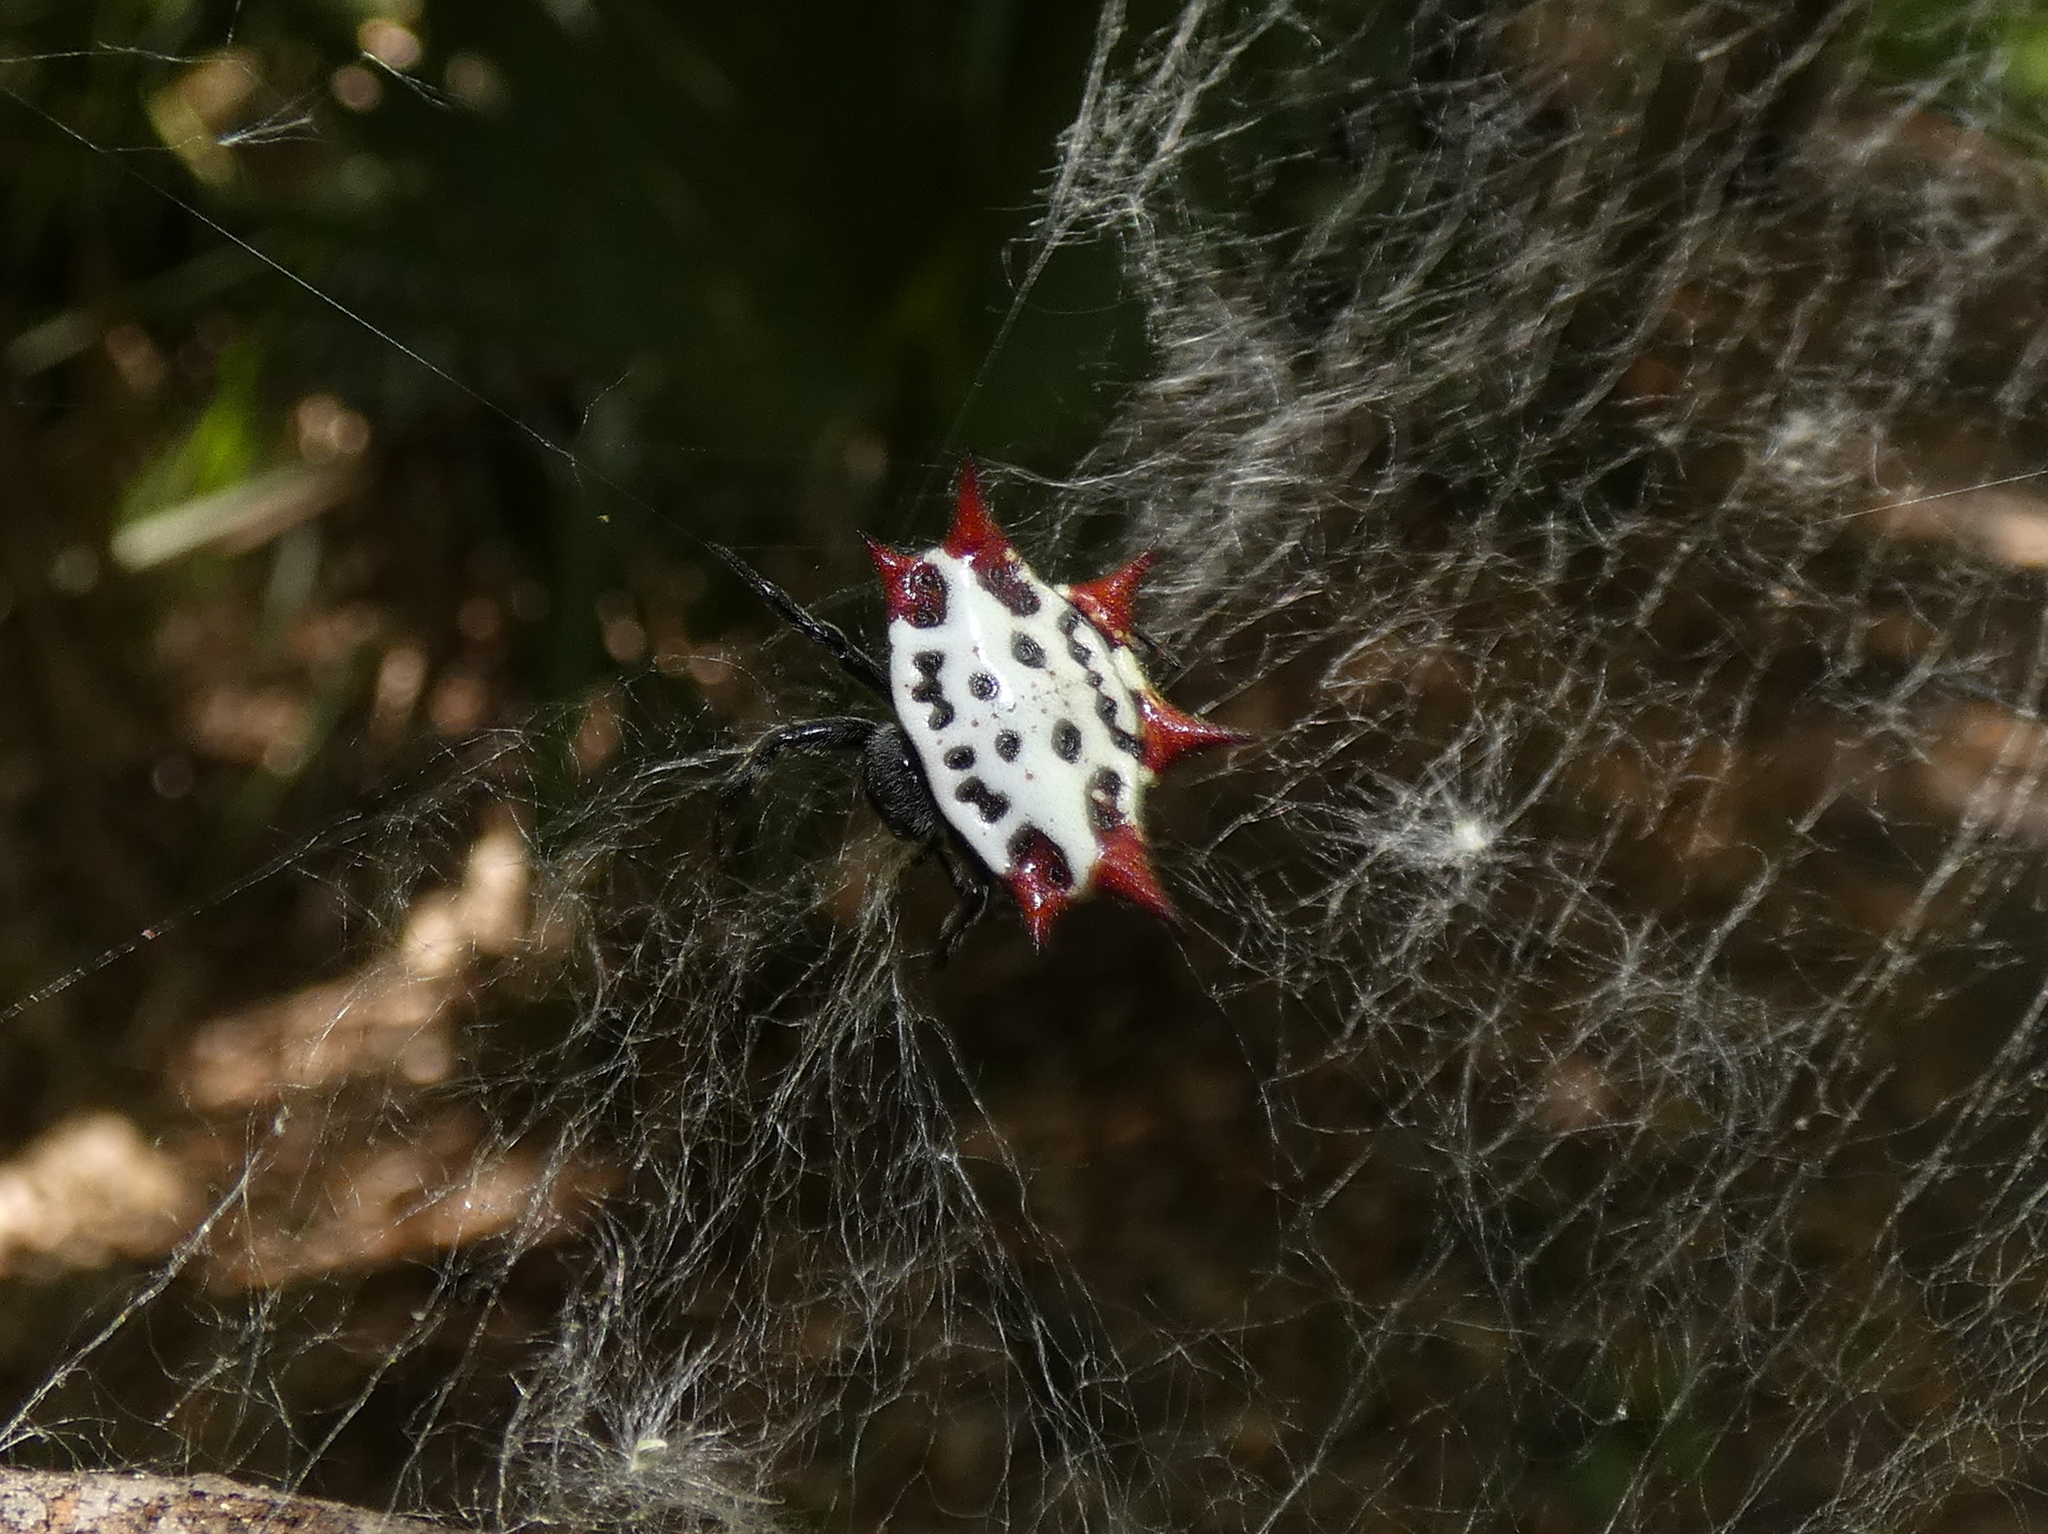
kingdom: Animalia
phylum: Arthropoda
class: Arachnida
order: Araneae
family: Araneidae
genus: Gasteracantha
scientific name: Gasteracantha cancriformis
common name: Orb weavers
